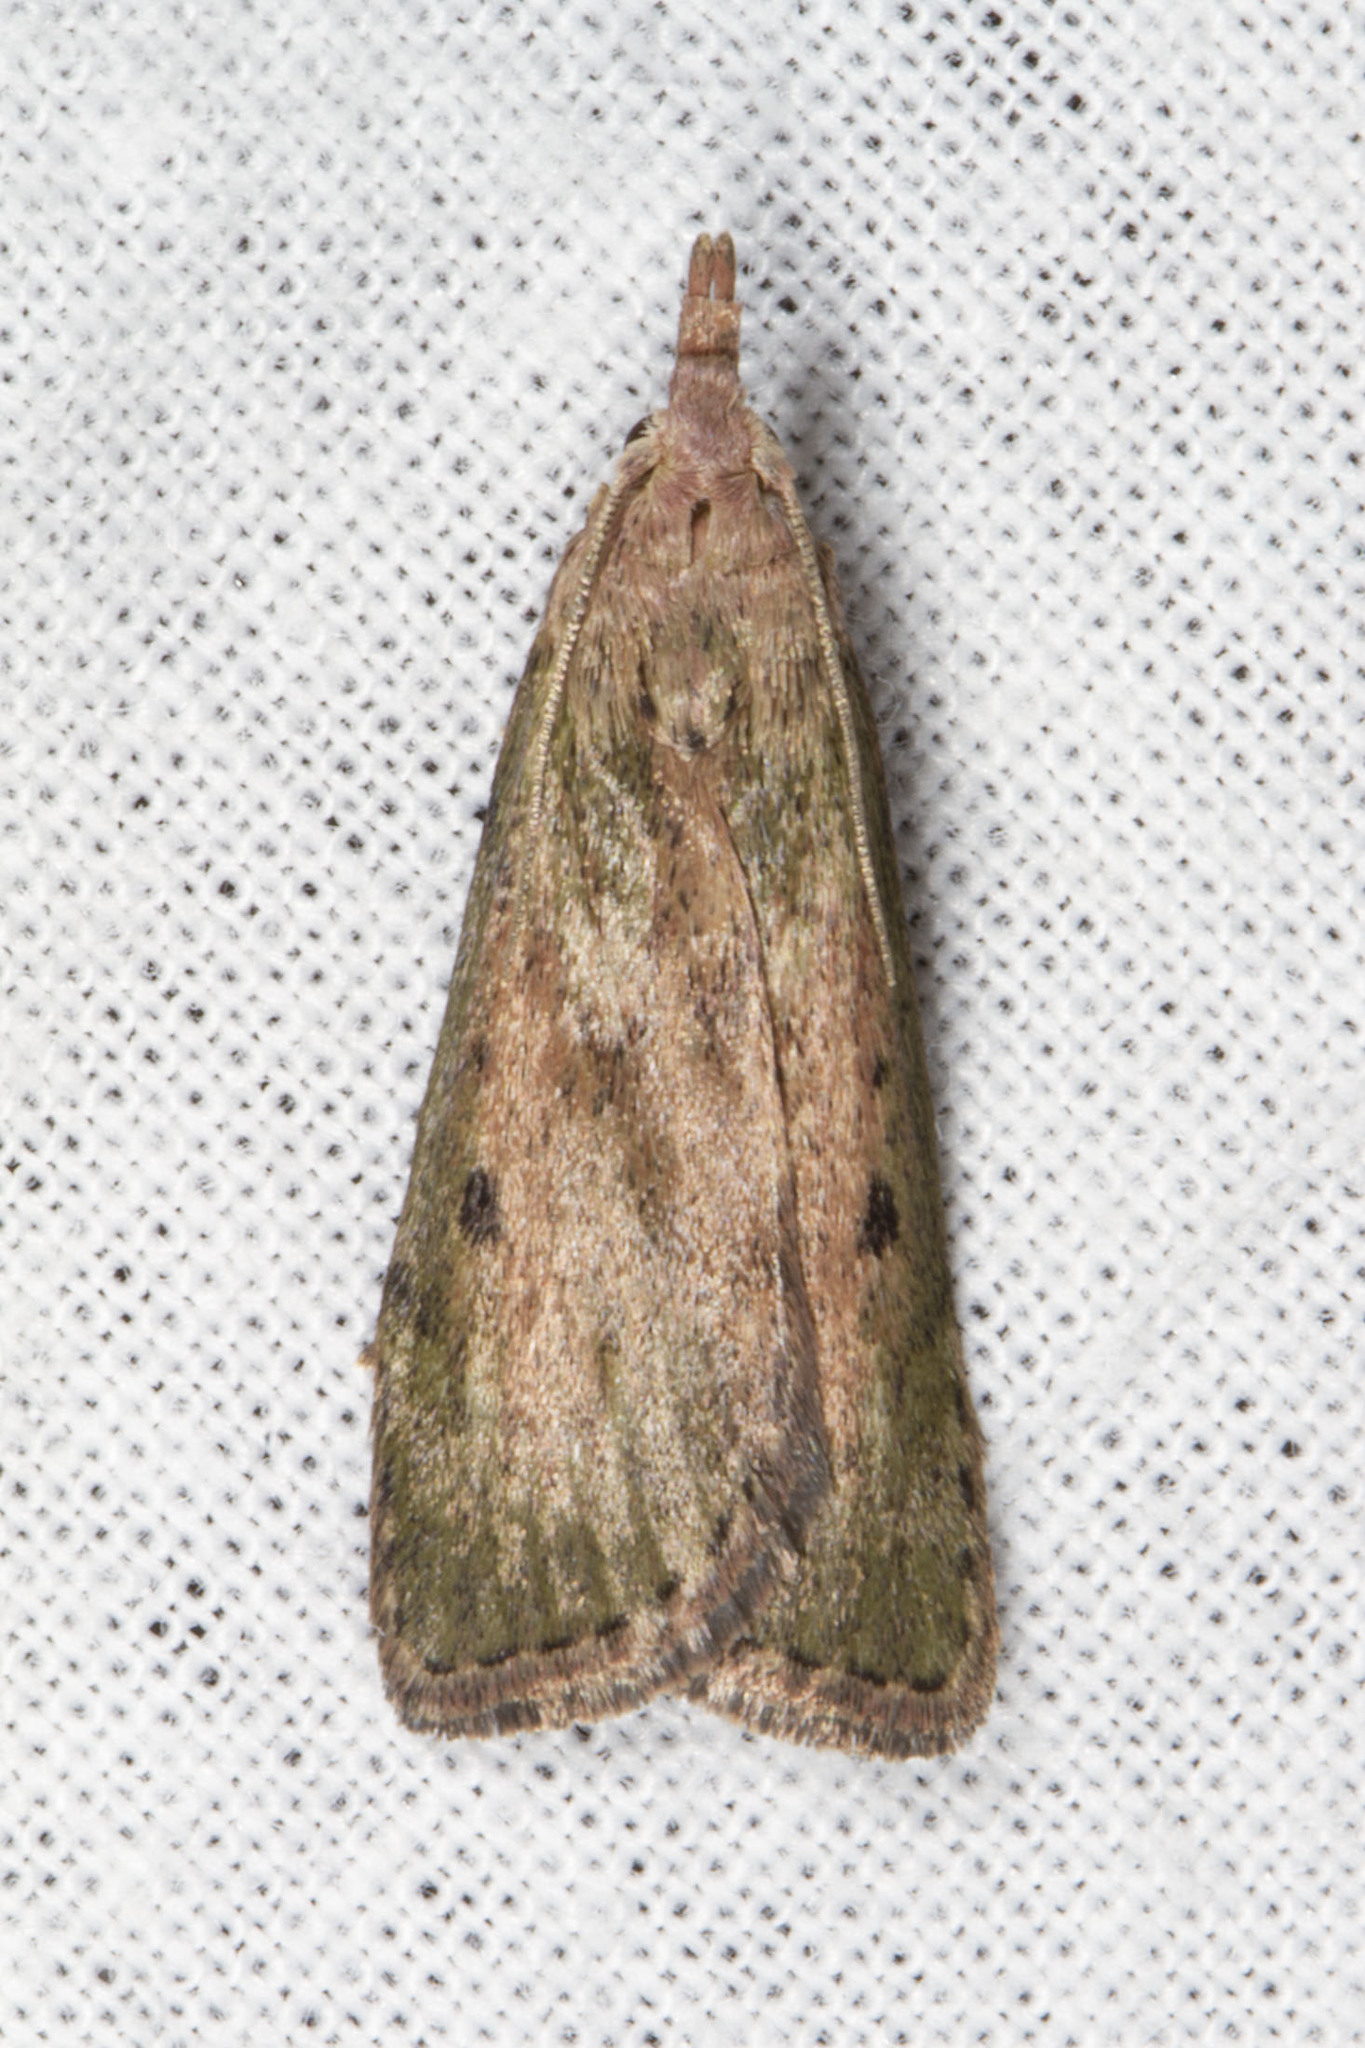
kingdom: Animalia
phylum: Arthropoda
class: Insecta
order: Lepidoptera
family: Pyralidae
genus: Aphomia
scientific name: Aphomia sociella
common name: Bee moth
